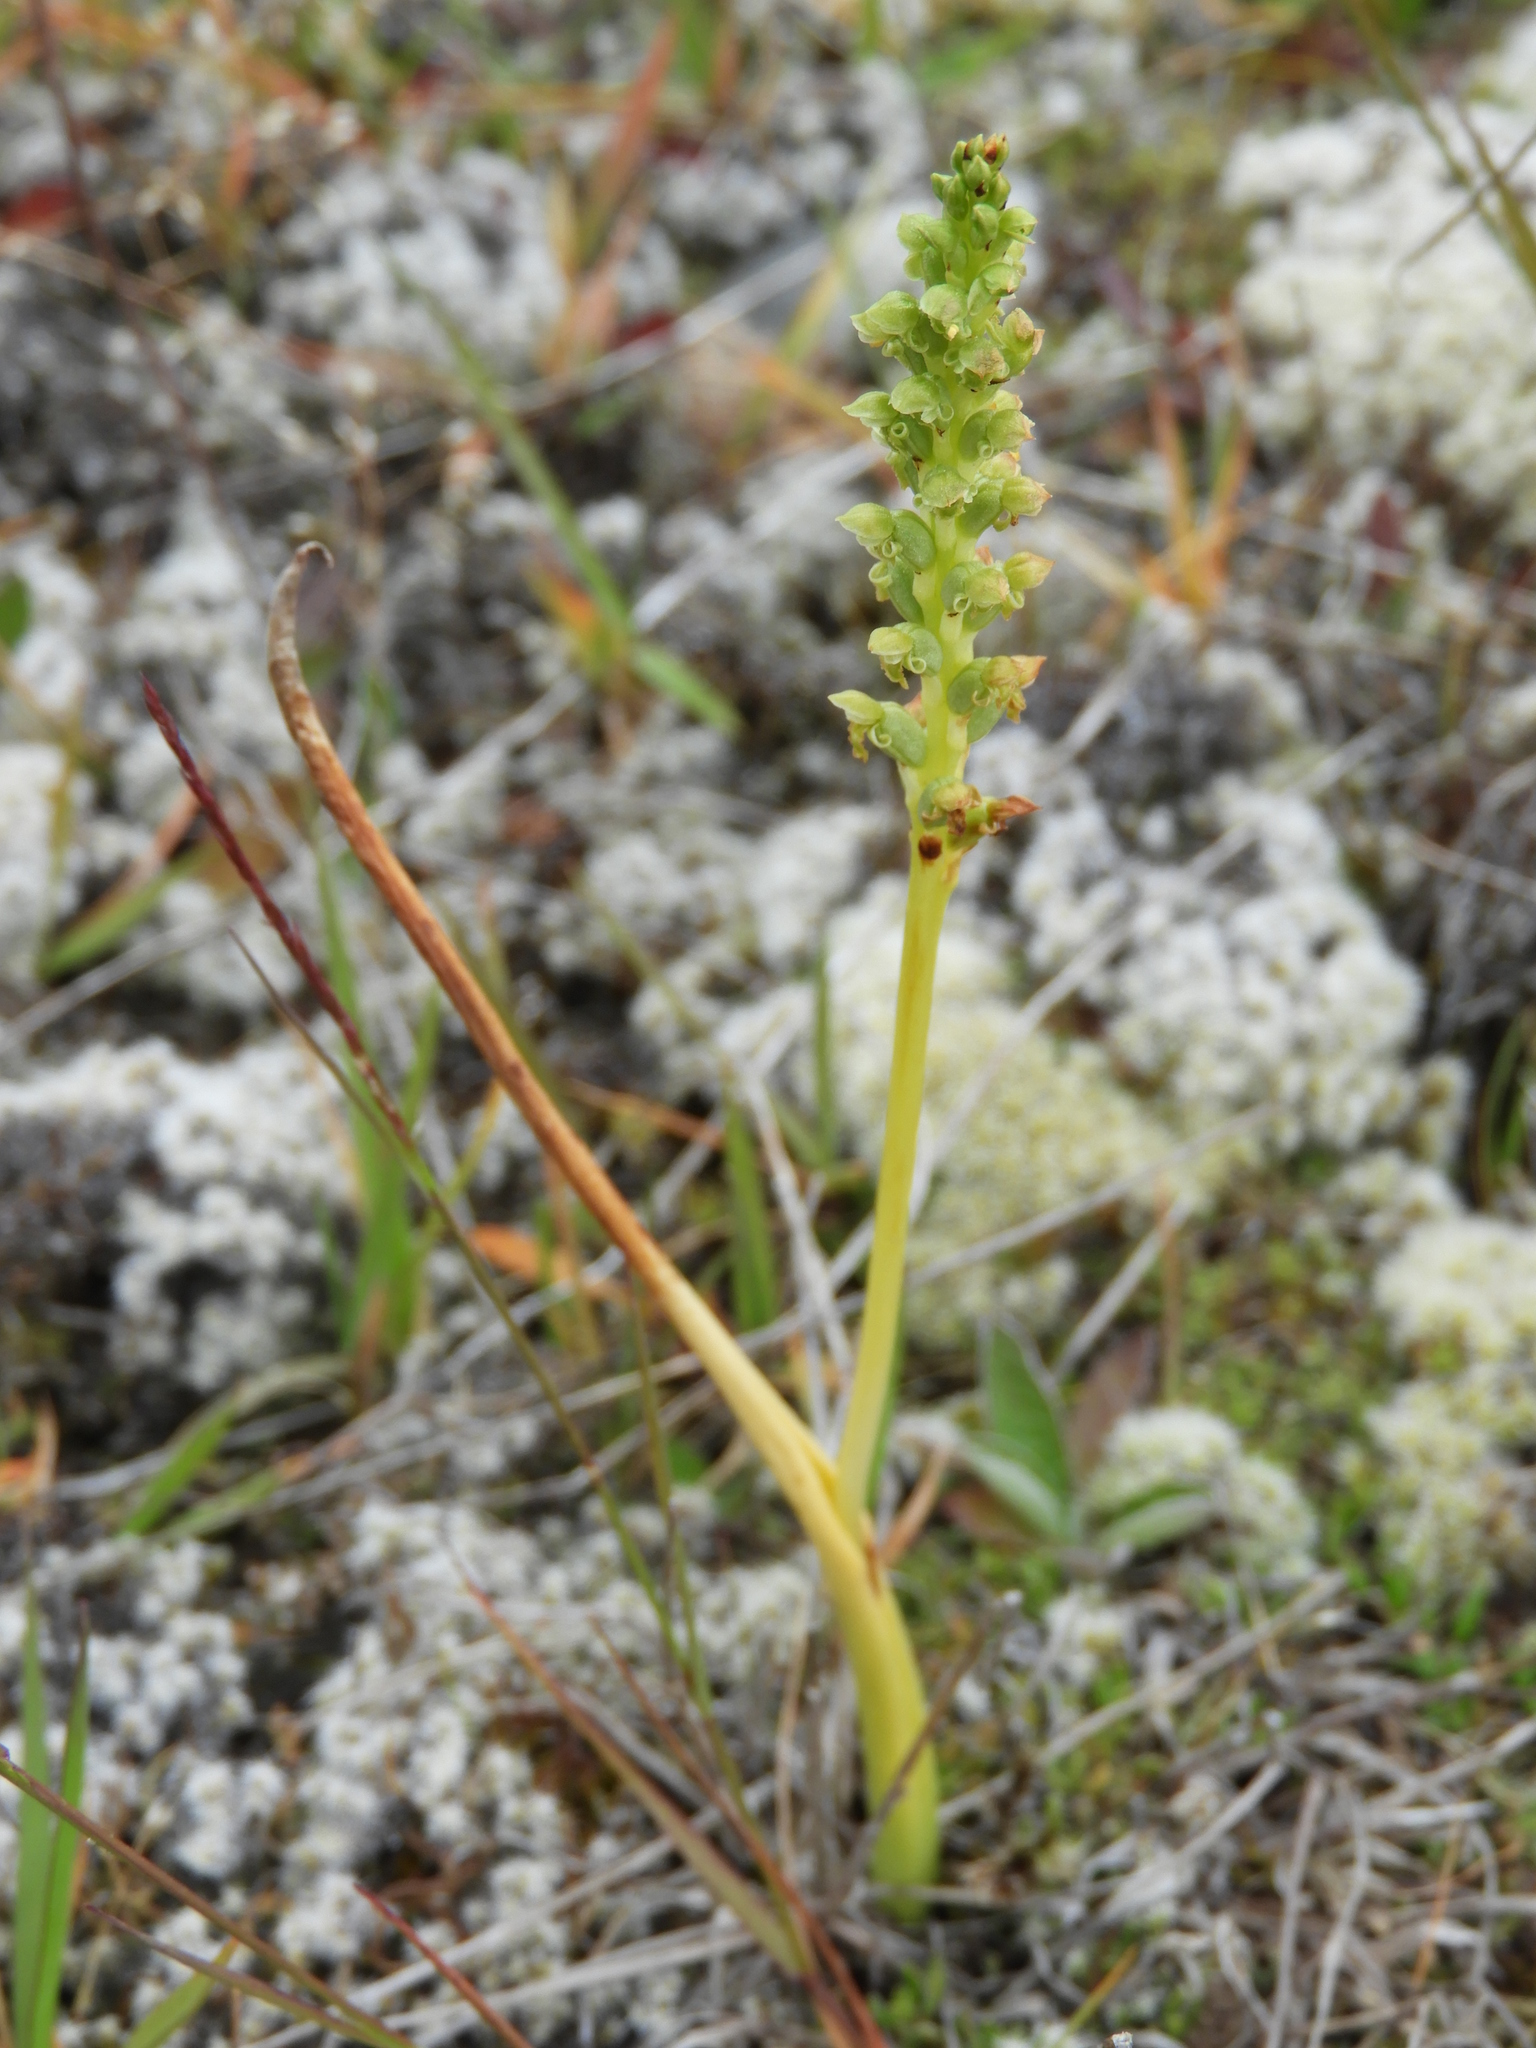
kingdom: Plantae
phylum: Tracheophyta
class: Liliopsida
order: Asparagales
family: Orchidaceae
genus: Microtis
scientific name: Microtis unifolia
